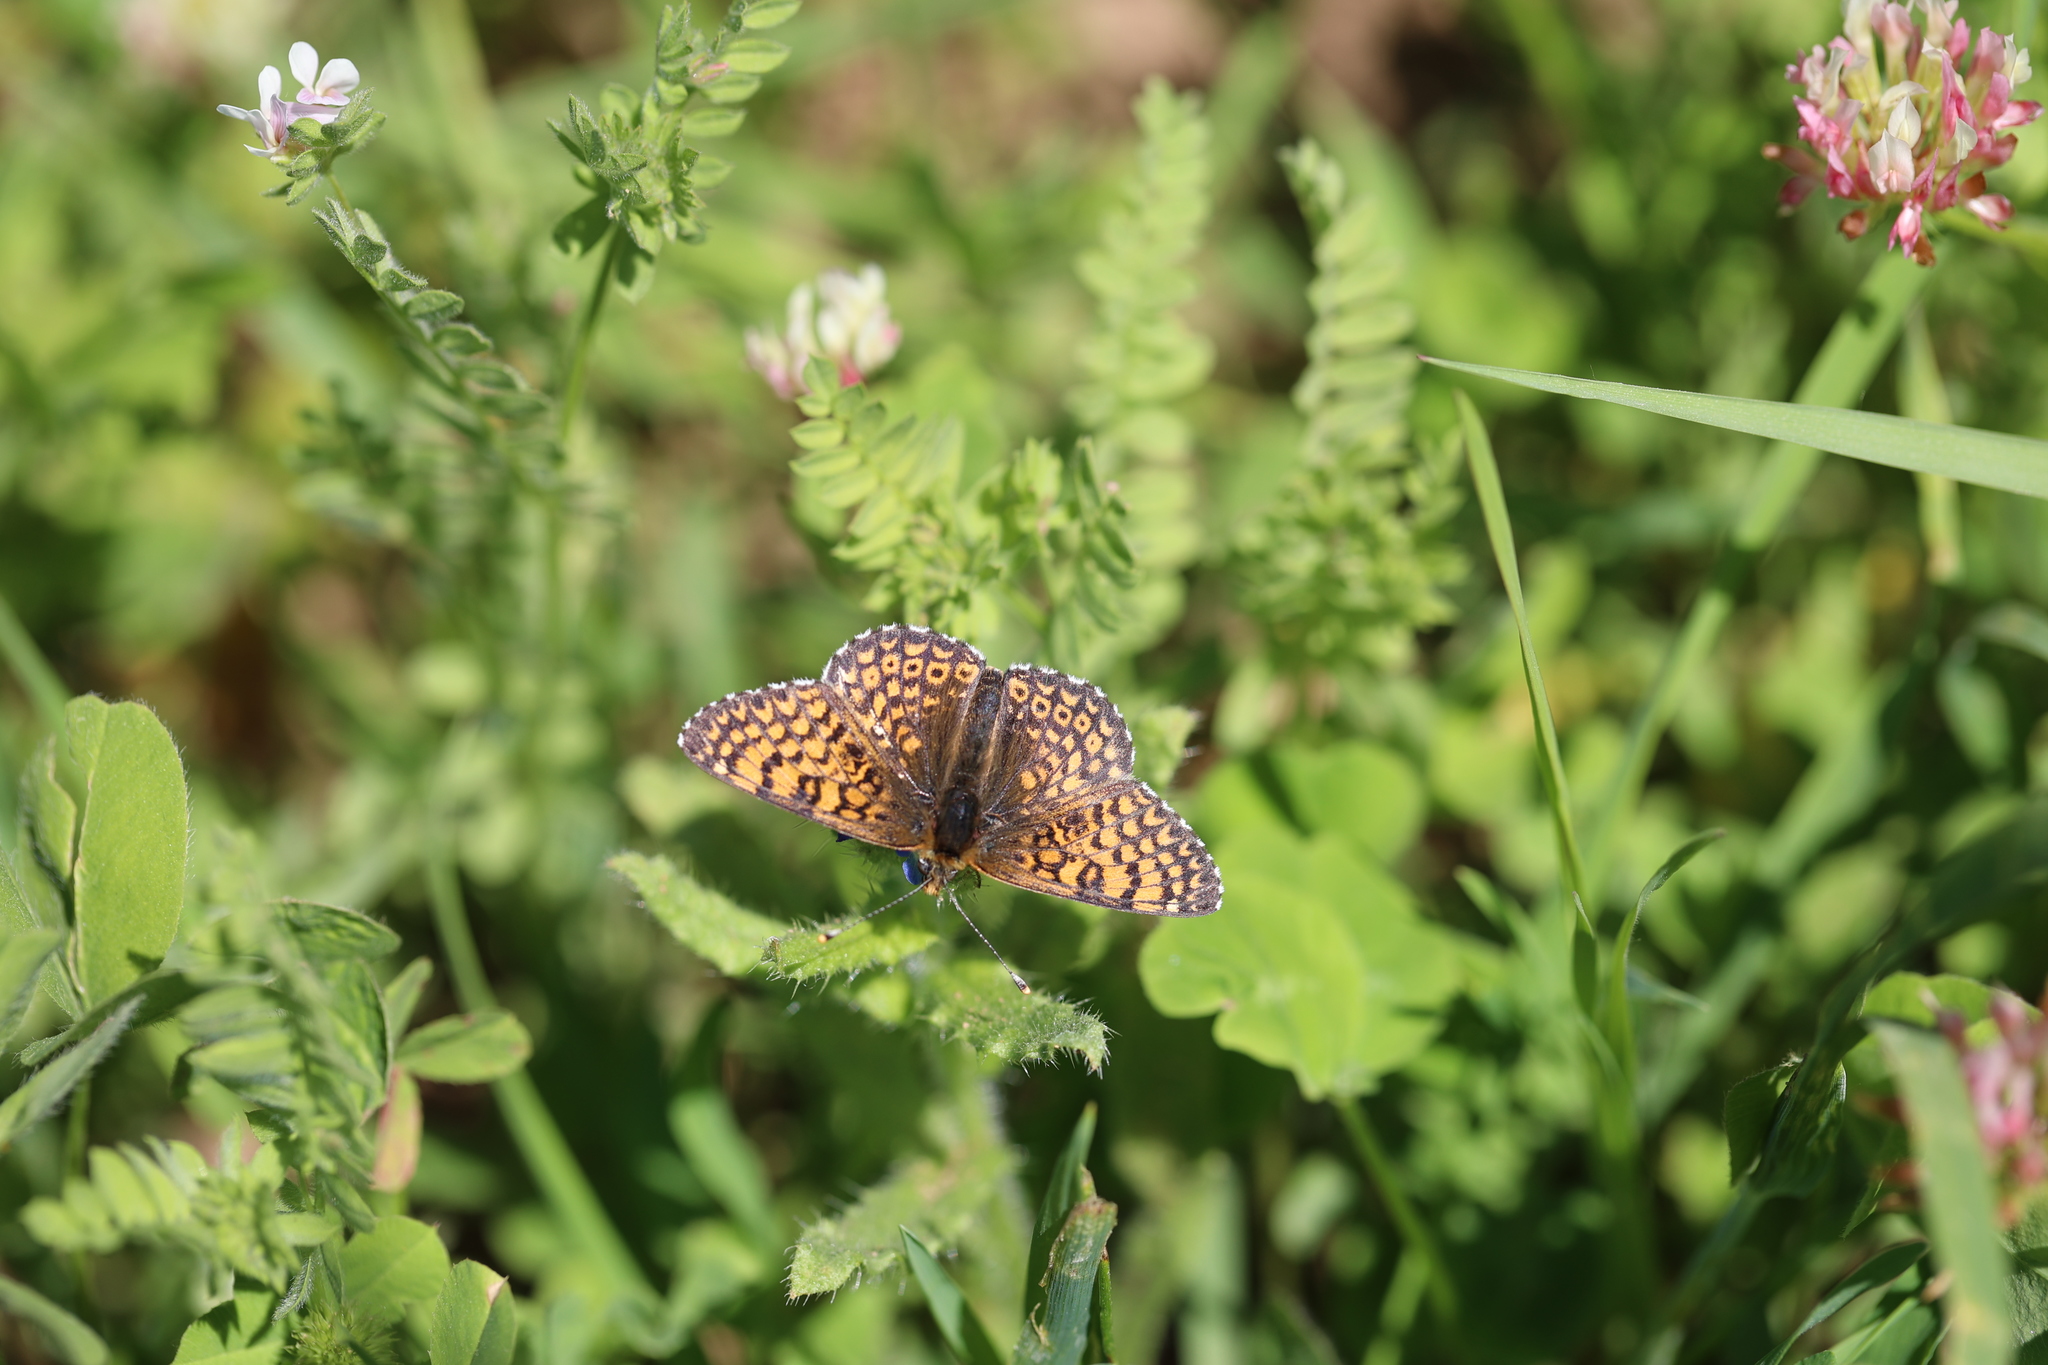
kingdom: Animalia
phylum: Arthropoda
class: Insecta
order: Lepidoptera
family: Nymphalidae
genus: Melitaea
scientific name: Melitaea cinxia
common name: Glanville fritillary
